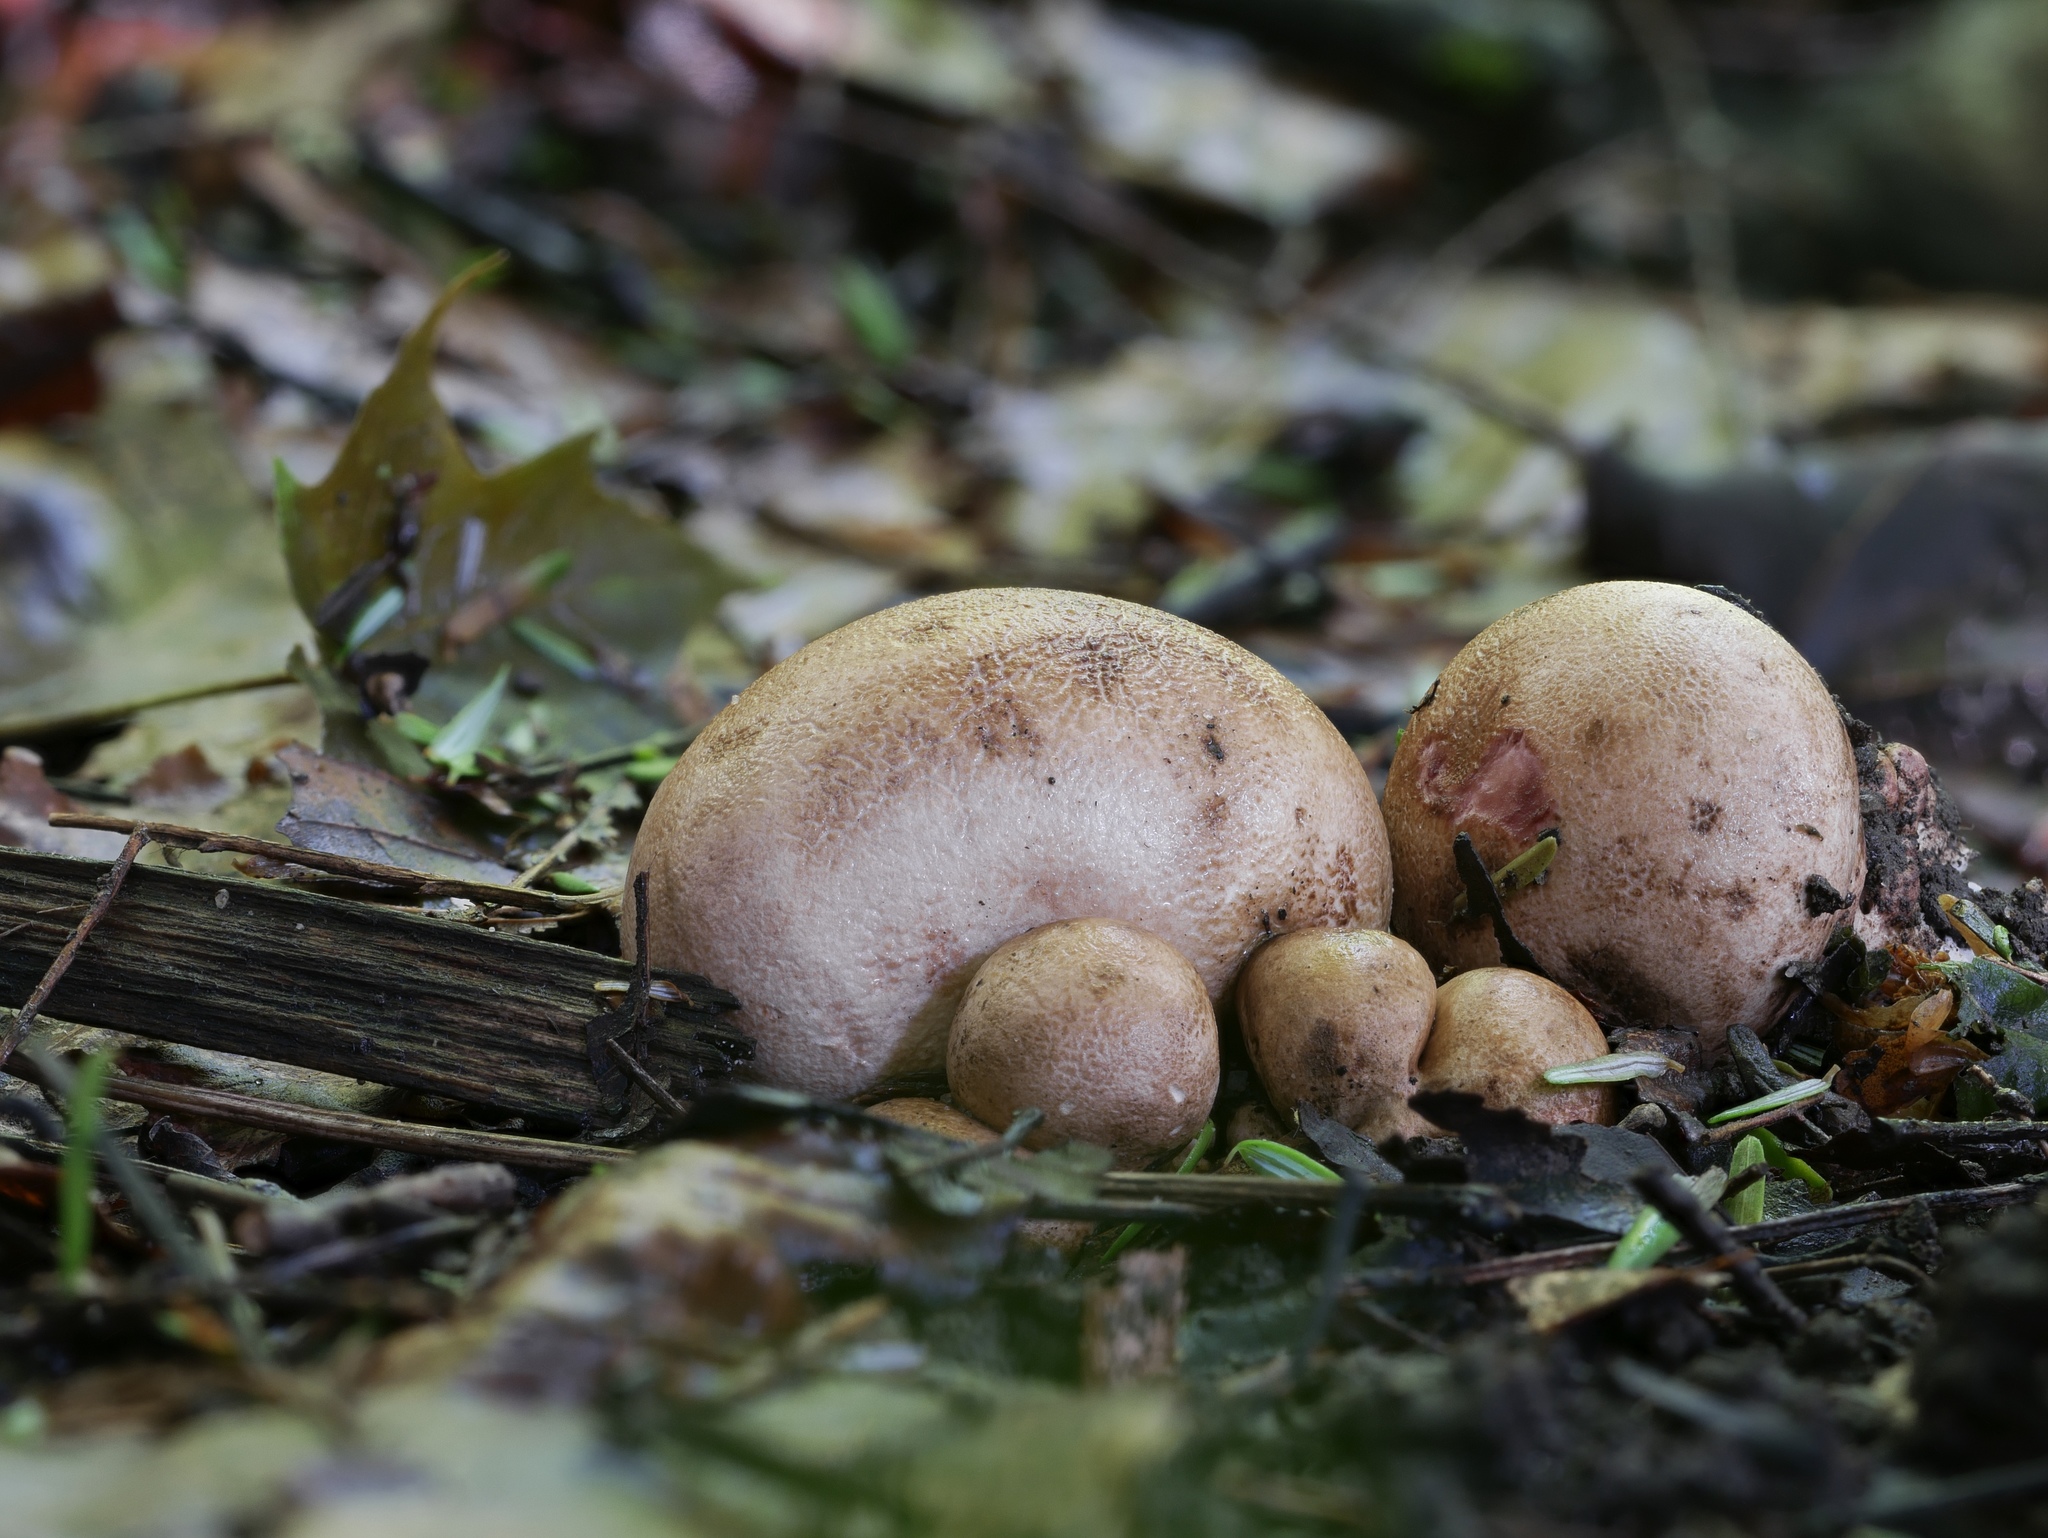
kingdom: Fungi
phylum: Basidiomycota
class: Agaricomycetes
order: Boletales
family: Sclerodermataceae
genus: Scleroderma
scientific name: Scleroderma cepa
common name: Onion earthball
